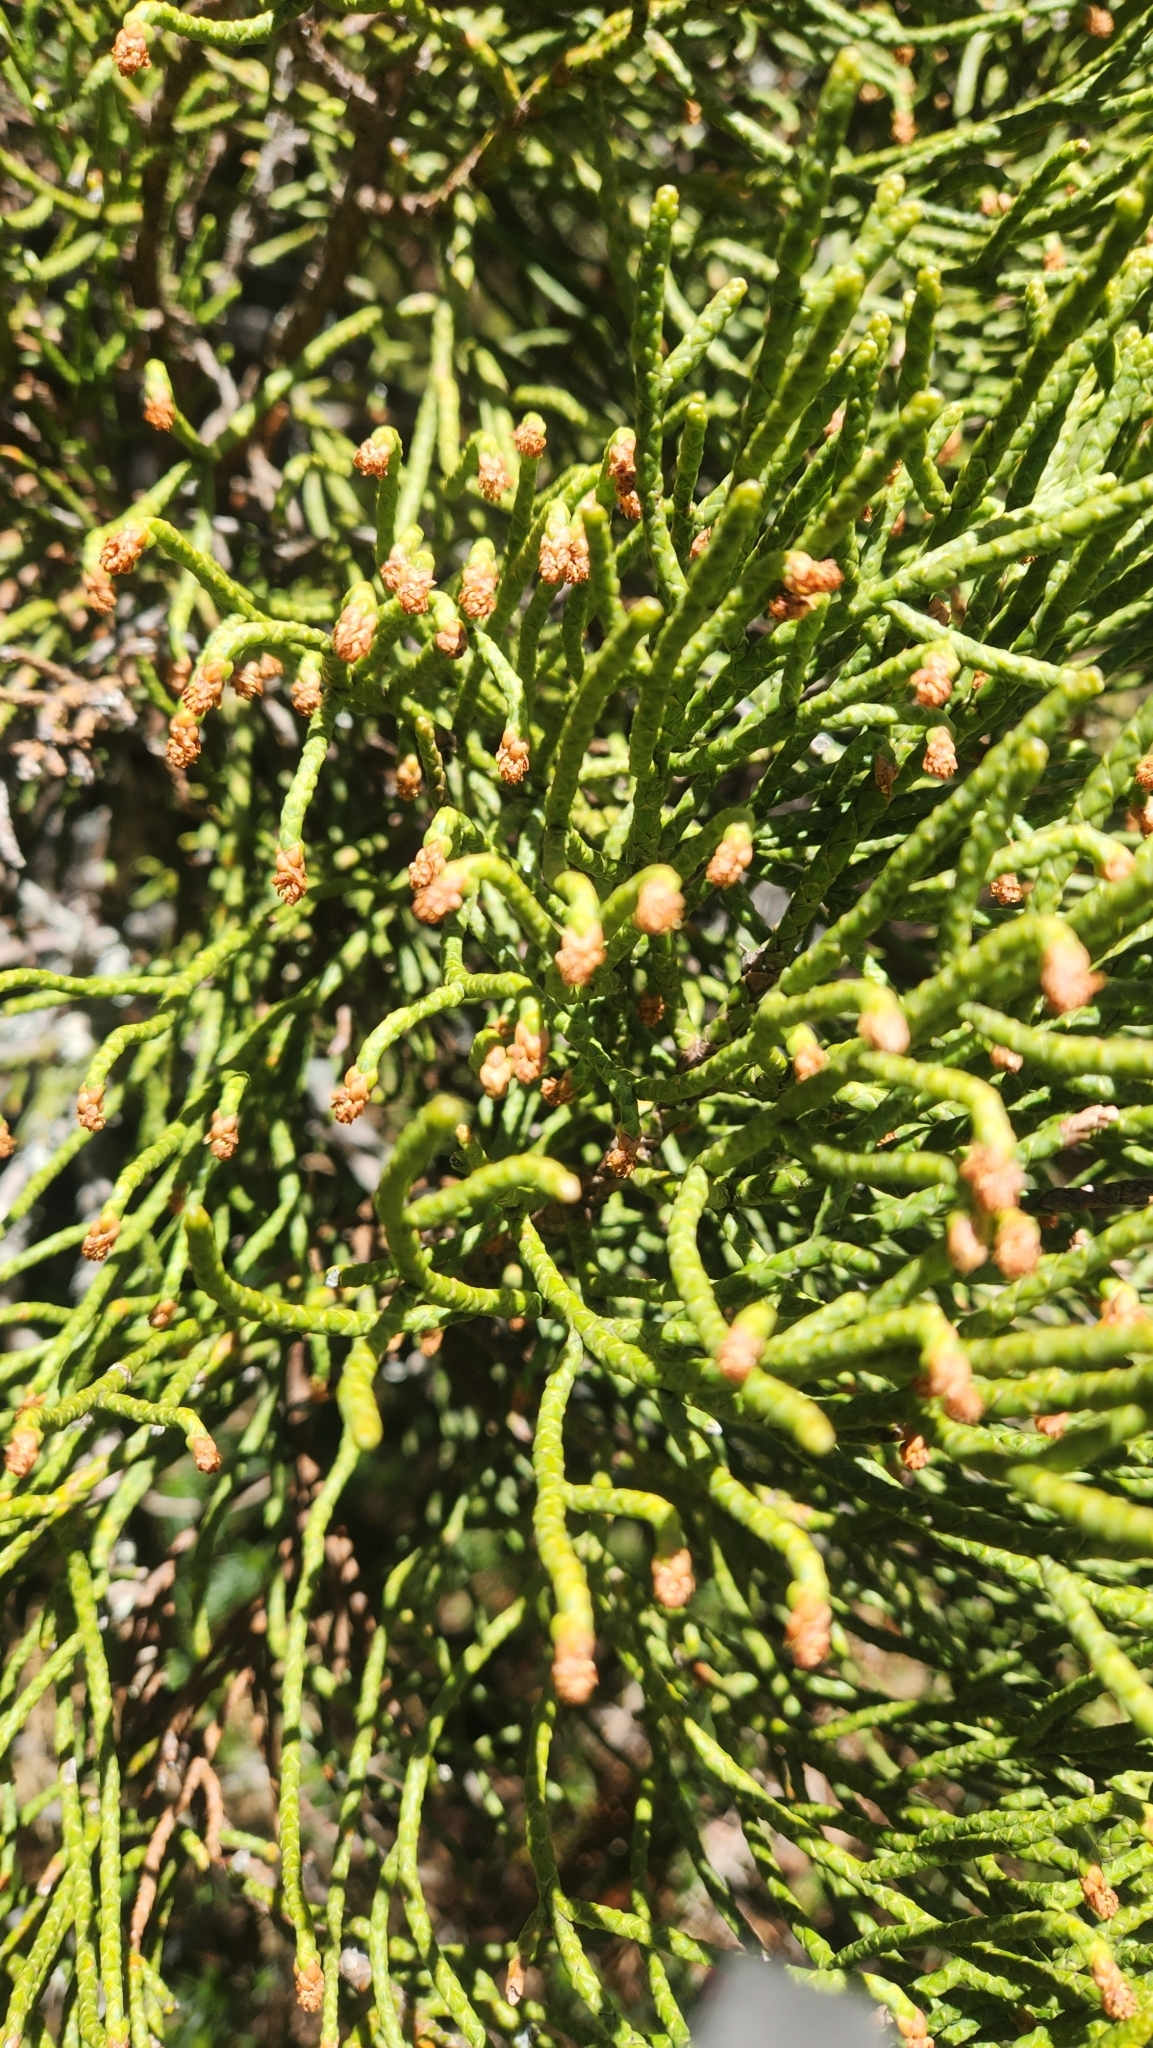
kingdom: Plantae
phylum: Tracheophyta
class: Pinopsida
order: Pinales
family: Cupressaceae
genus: Athrotaxis
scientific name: Athrotaxis cupressoides
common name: Tasmanian pencil pine
